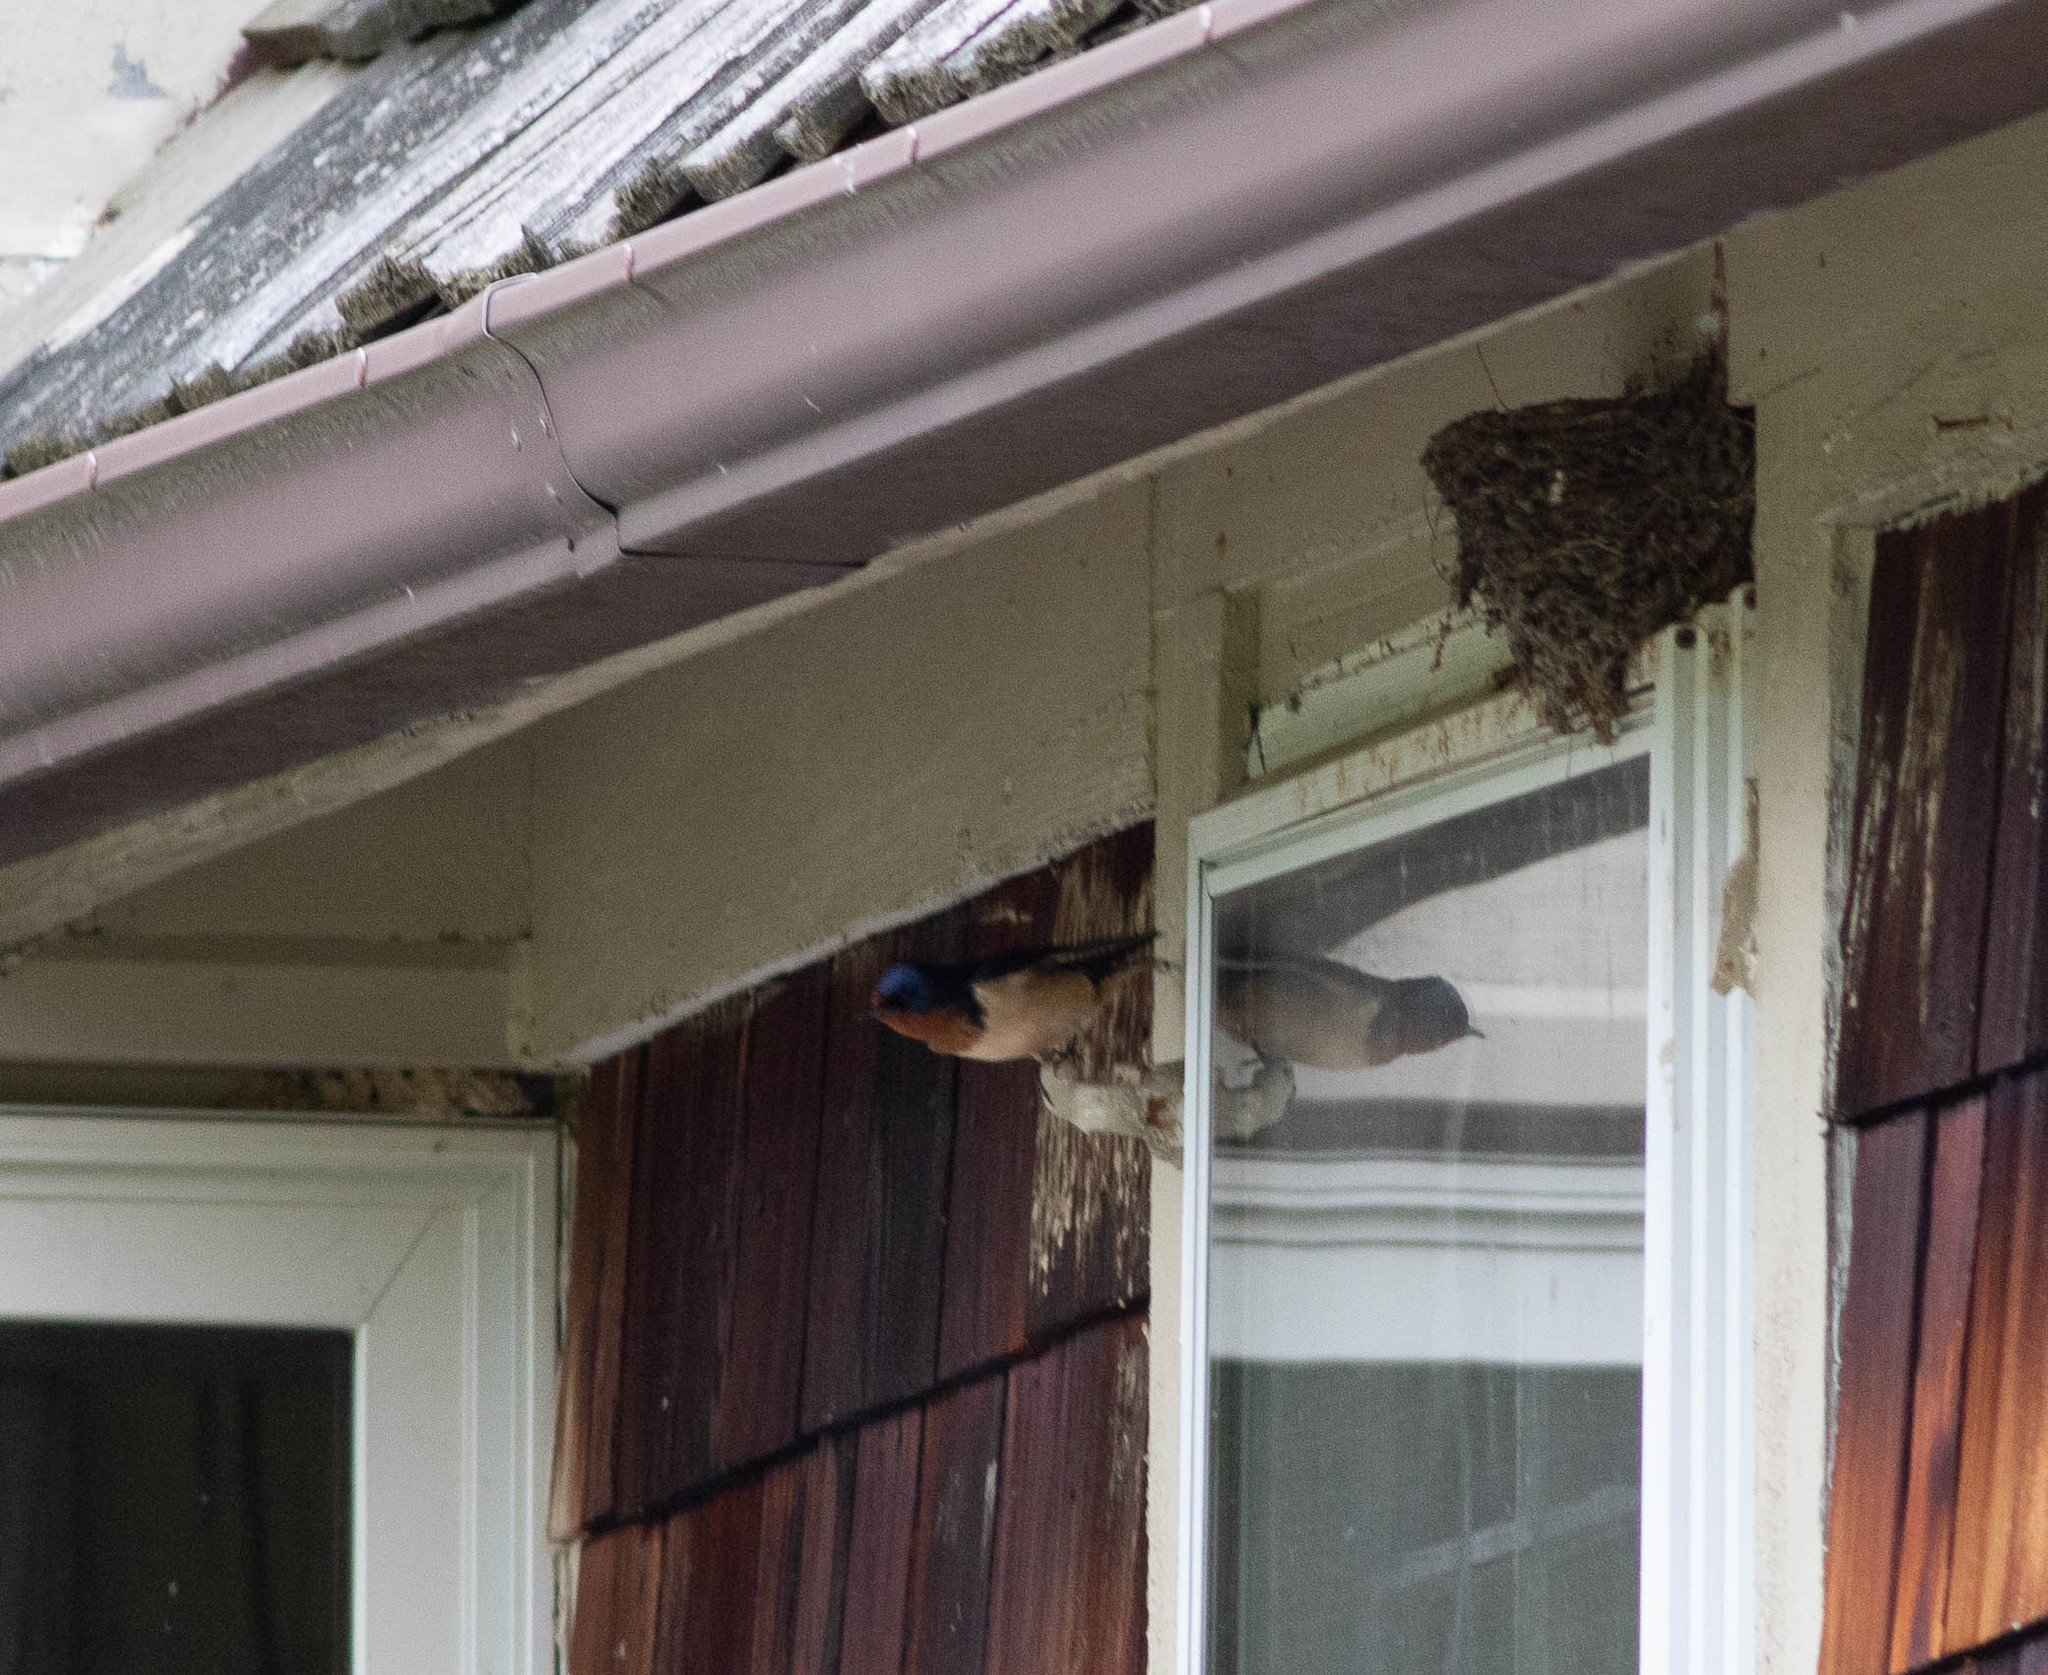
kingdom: Animalia
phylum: Chordata
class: Aves
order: Passeriformes
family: Hirundinidae
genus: Hirundo
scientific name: Hirundo rustica
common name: Barn swallow
